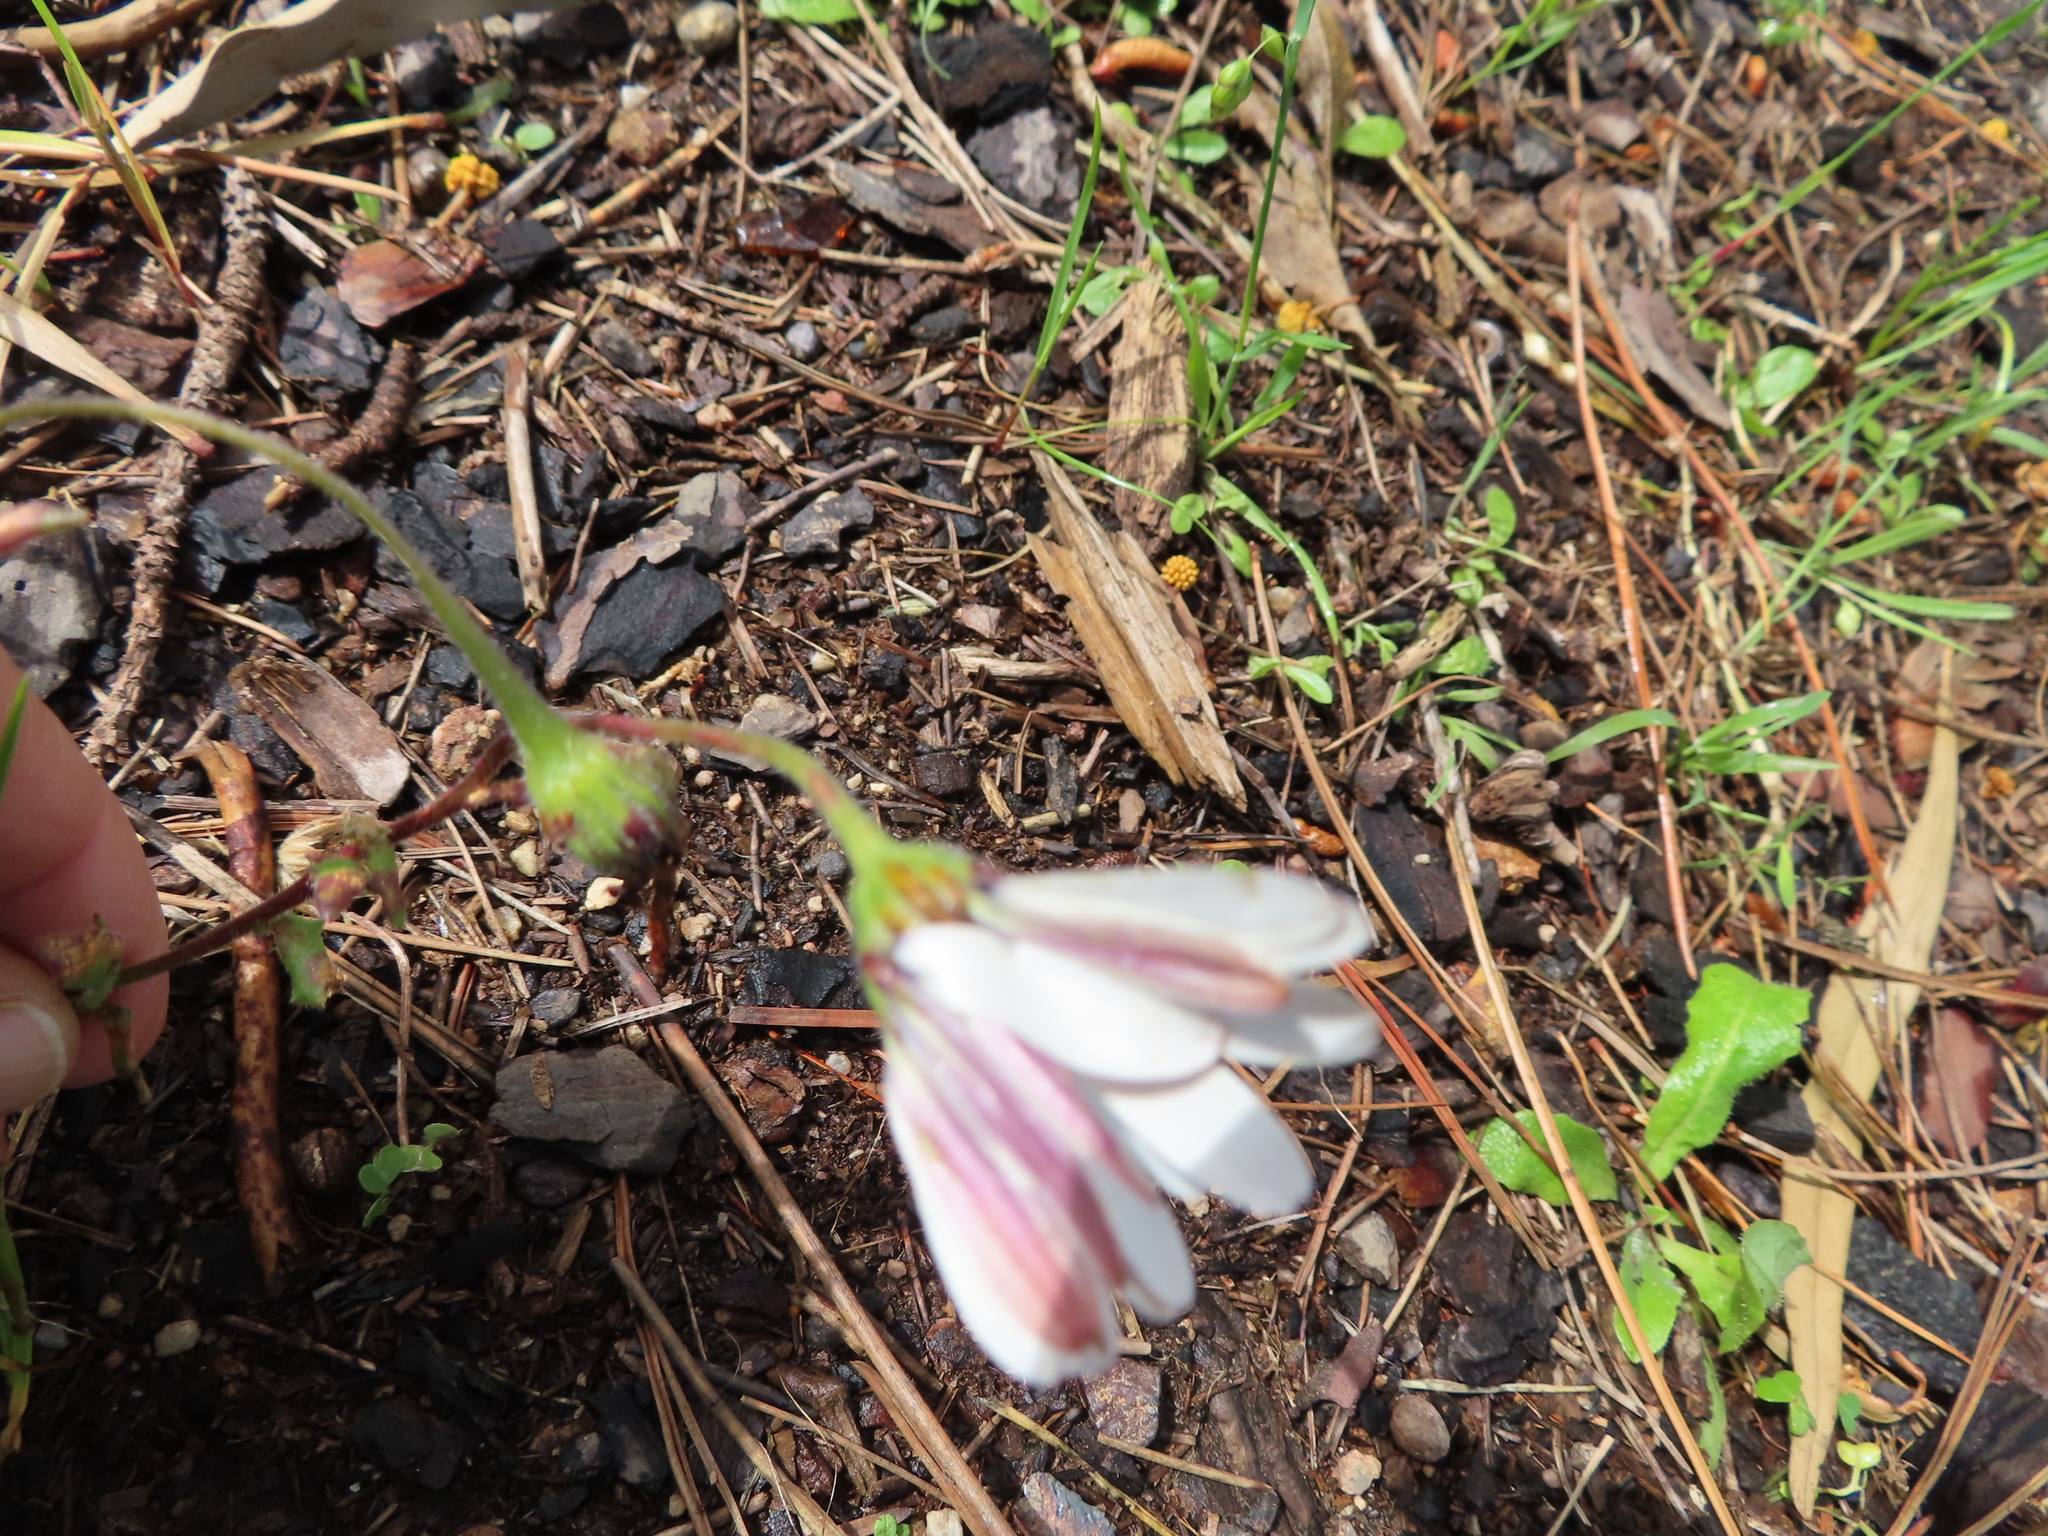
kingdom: Plantae
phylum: Tracheophyta
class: Magnoliopsida
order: Asterales
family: Asteraceae
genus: Dimorphotheca
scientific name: Dimorphotheca pluvialis
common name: Weather prophet
